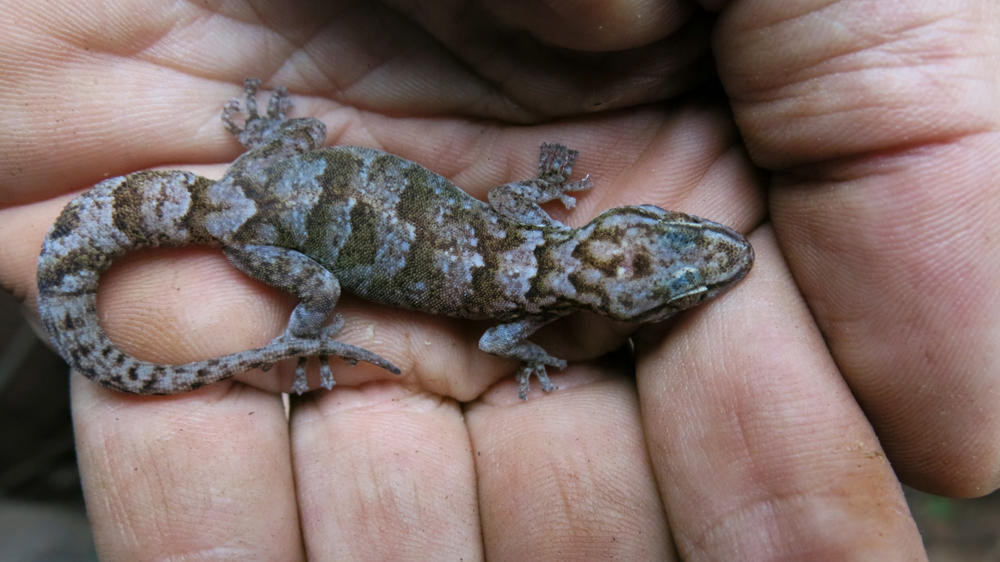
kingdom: Animalia
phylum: Chordata
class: Squamata
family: Gekkonidae
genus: Afroedura
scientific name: Afroedura pienaari
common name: Pienaar’s rock gecko
